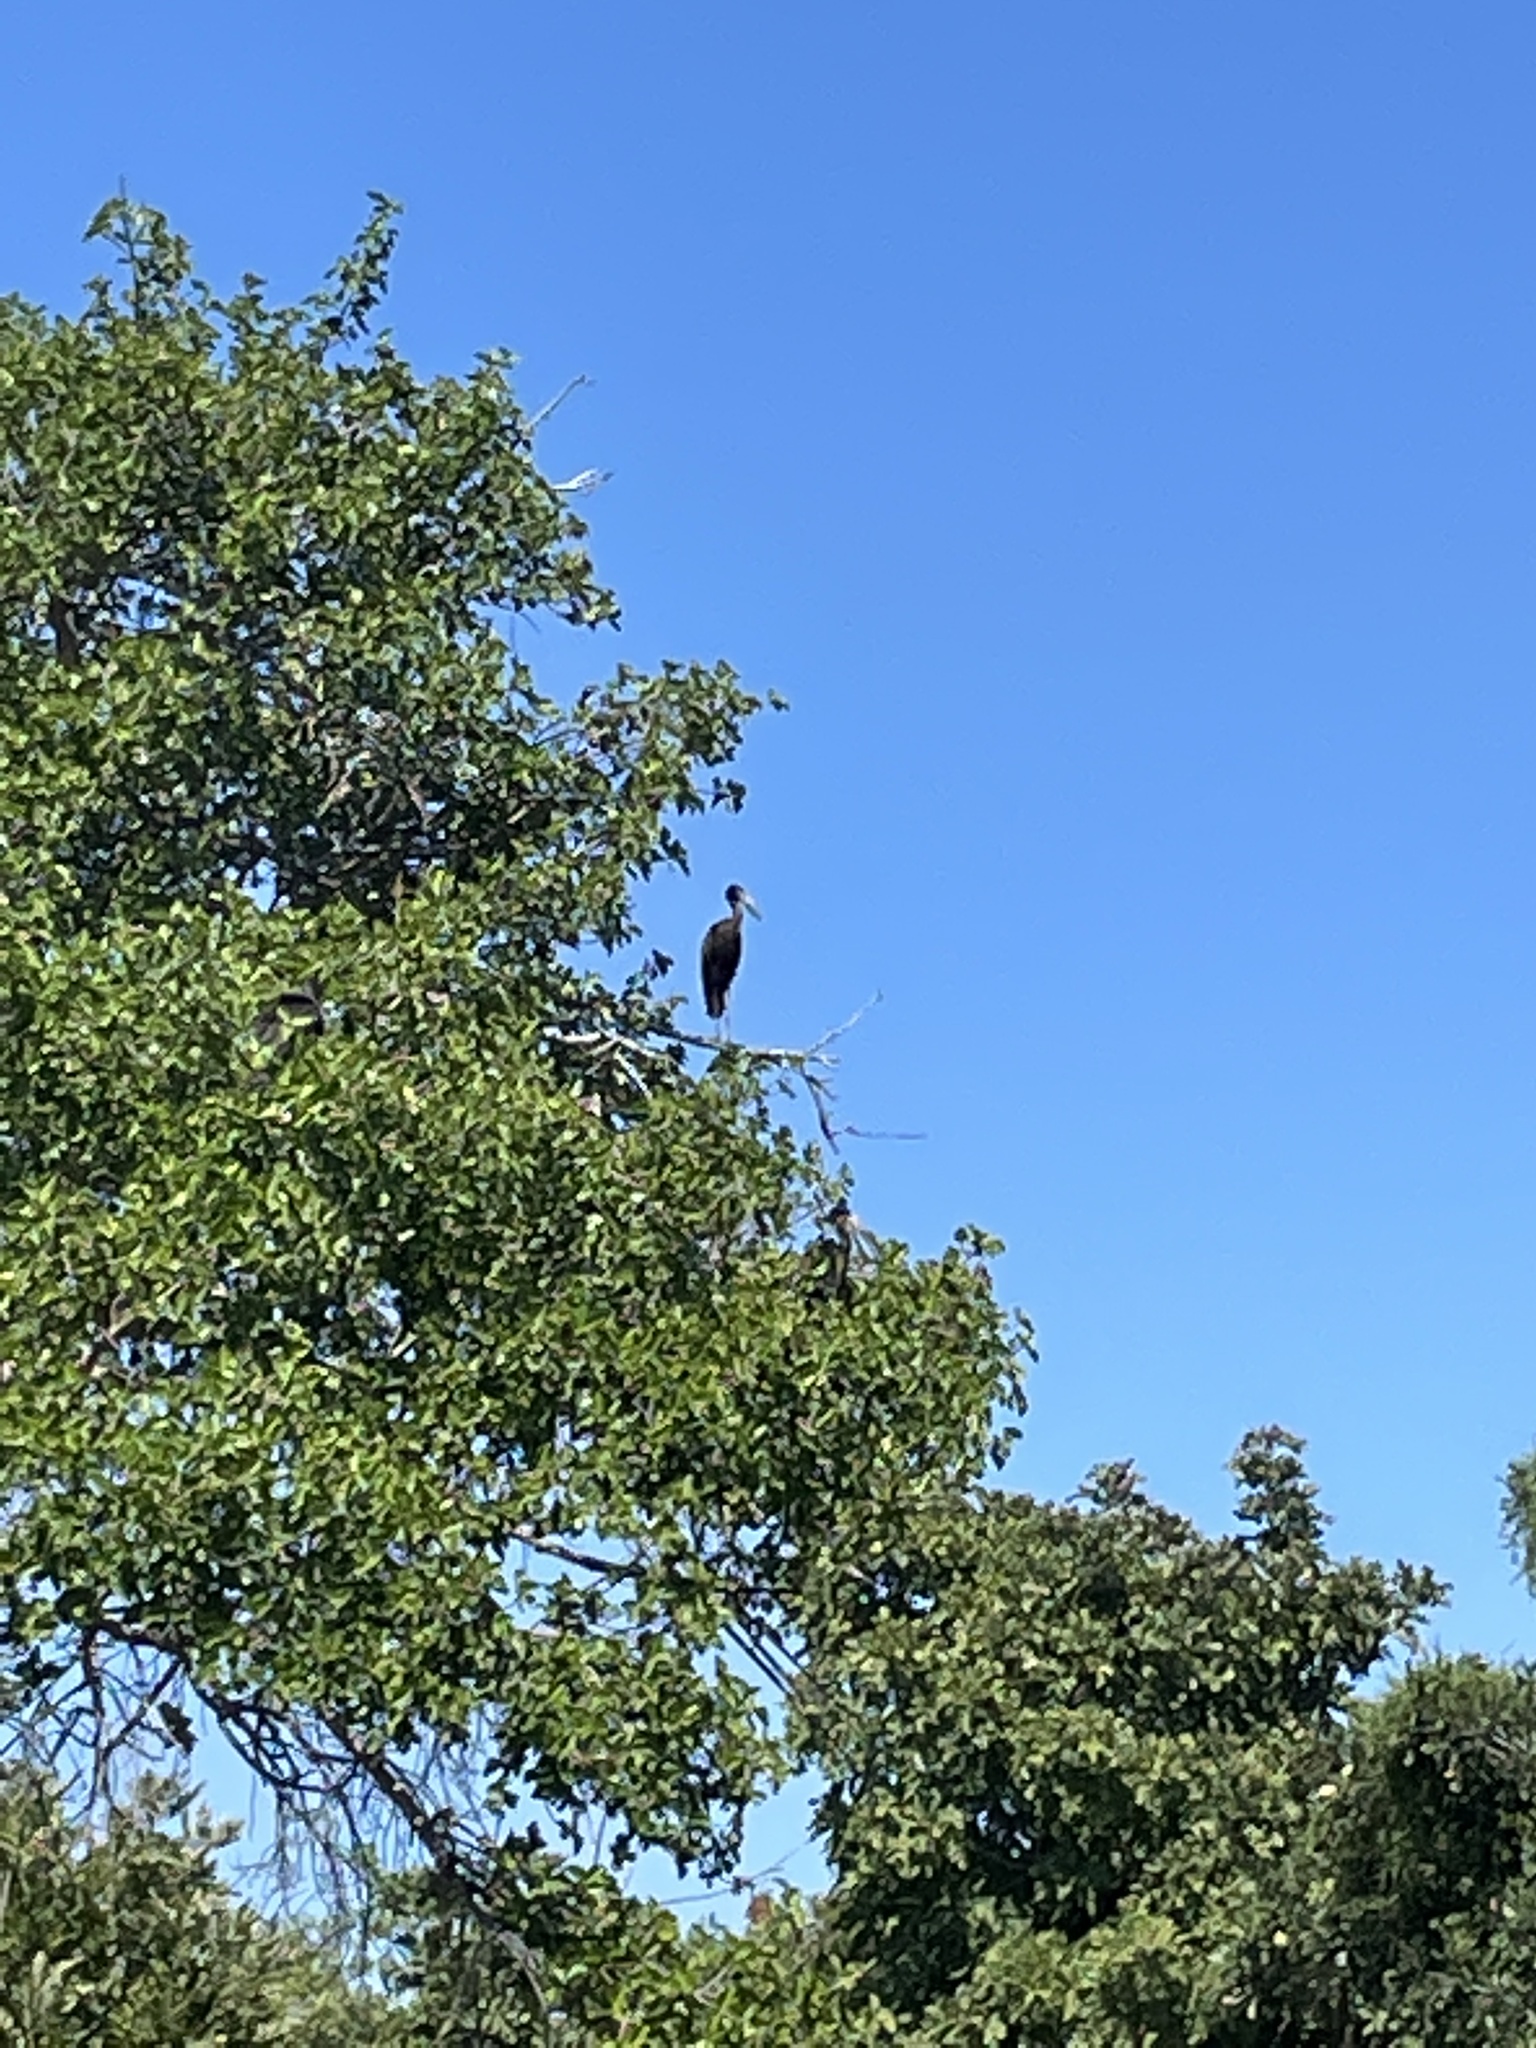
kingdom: Animalia
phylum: Chordata
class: Aves
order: Ciconiiformes
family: Ciconiidae
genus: Anastomus
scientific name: Anastomus lamelligerus
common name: African openbill
